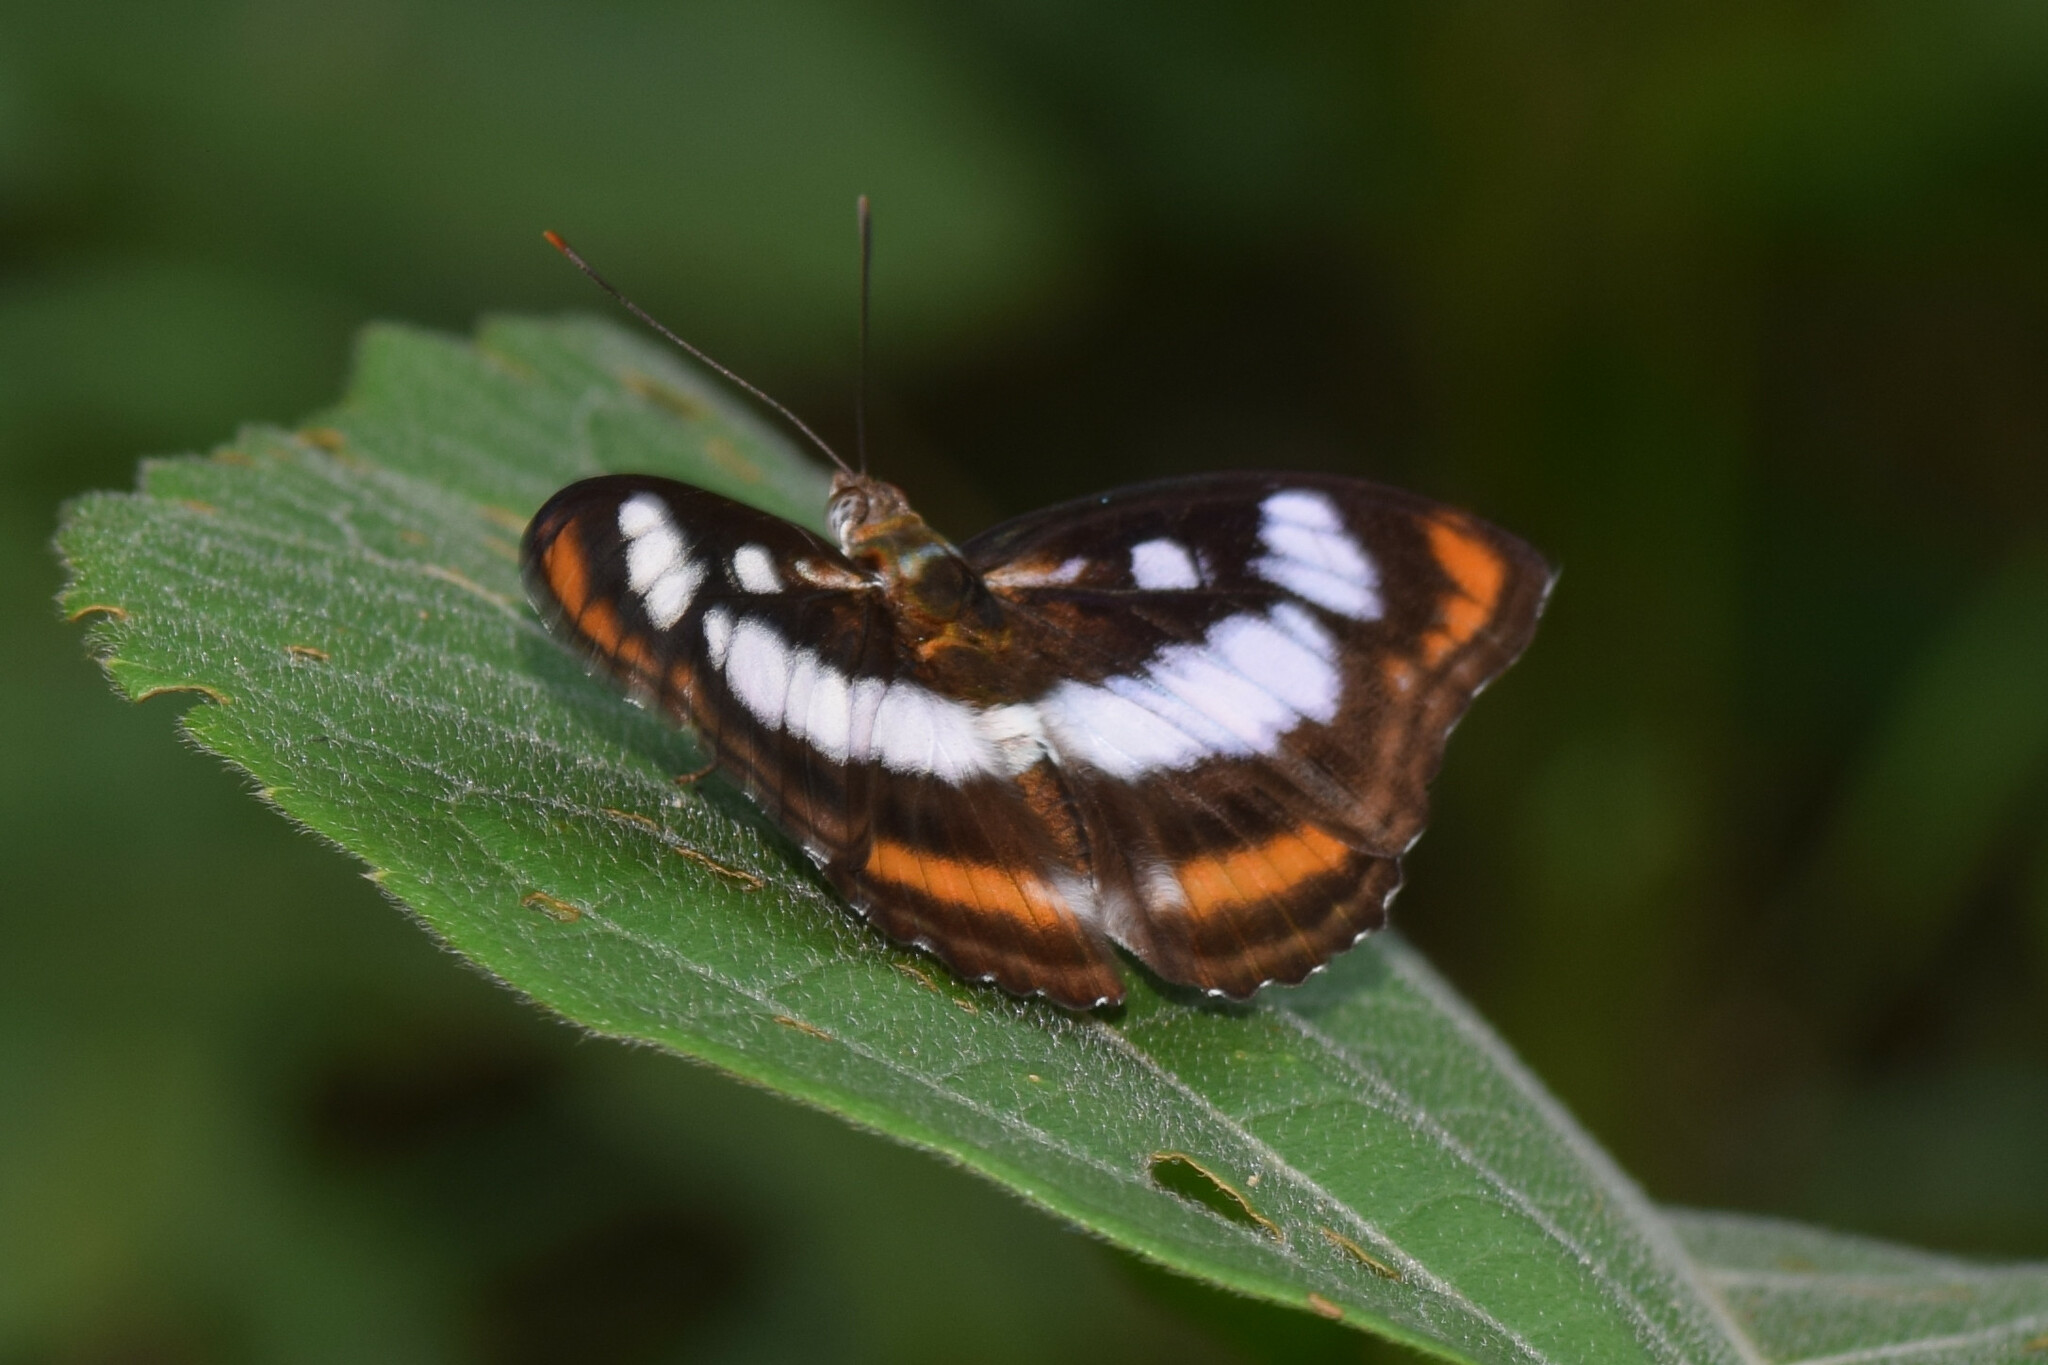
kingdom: Animalia
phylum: Arthropoda
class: Insecta
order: Lepidoptera
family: Nymphalidae
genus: Parathyma
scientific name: Parathyma nefte
